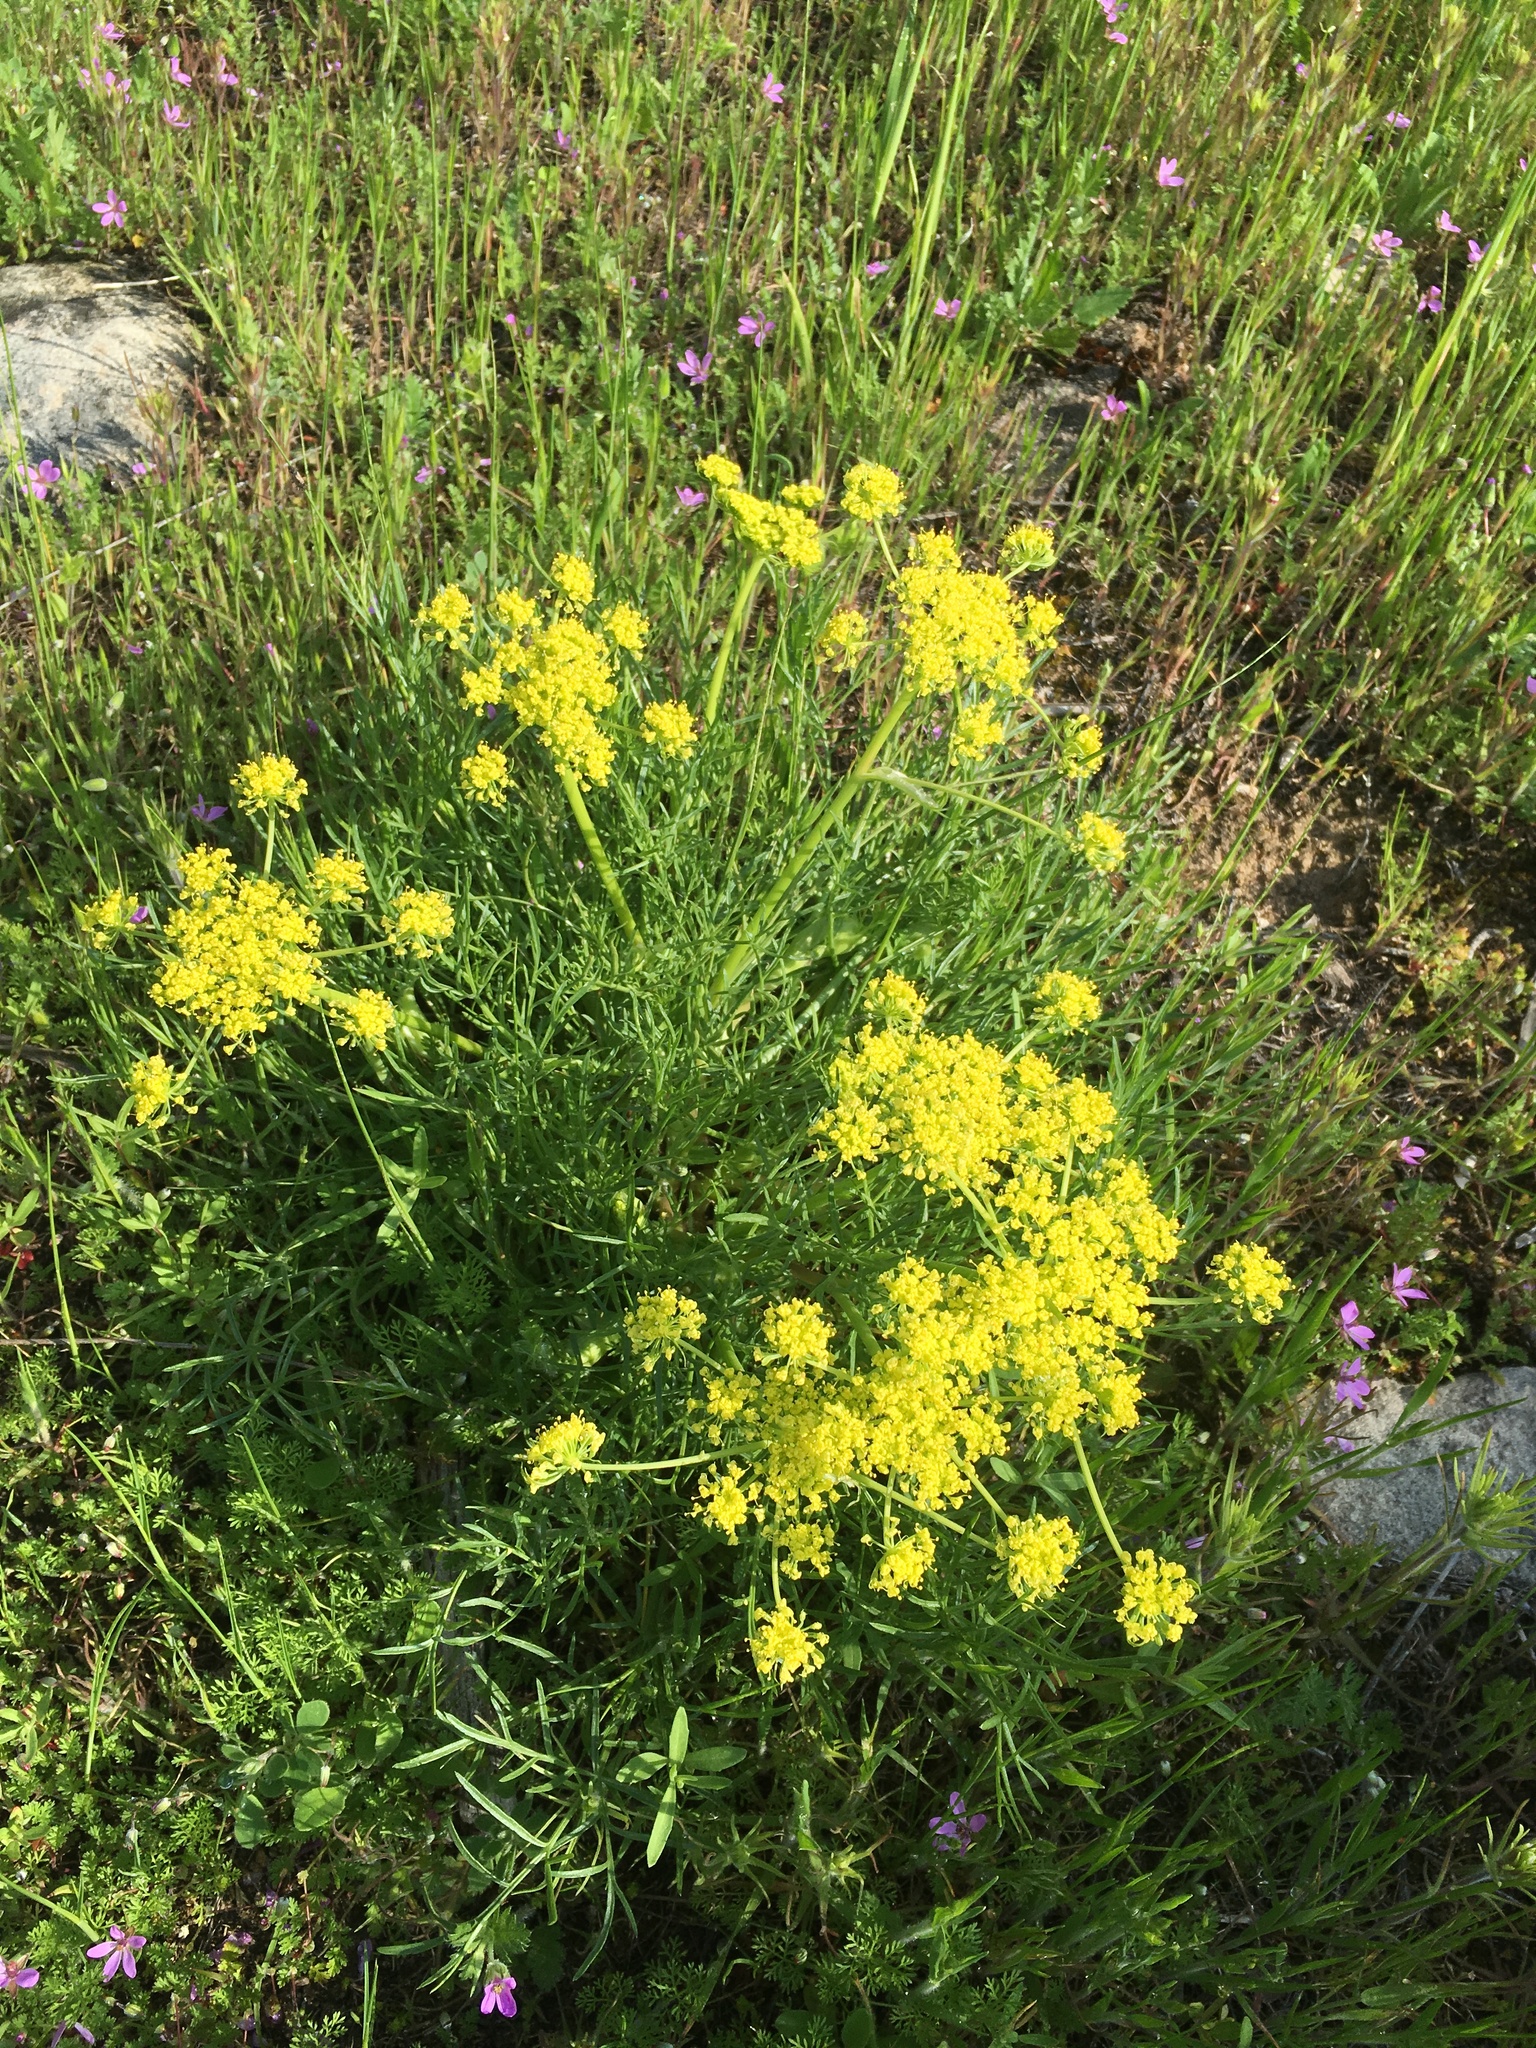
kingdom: Plantae
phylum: Tracheophyta
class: Magnoliopsida
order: Apiales
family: Apiaceae
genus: Lomatium
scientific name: Lomatium utriculatum
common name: Fine-leaf desert-parsley
